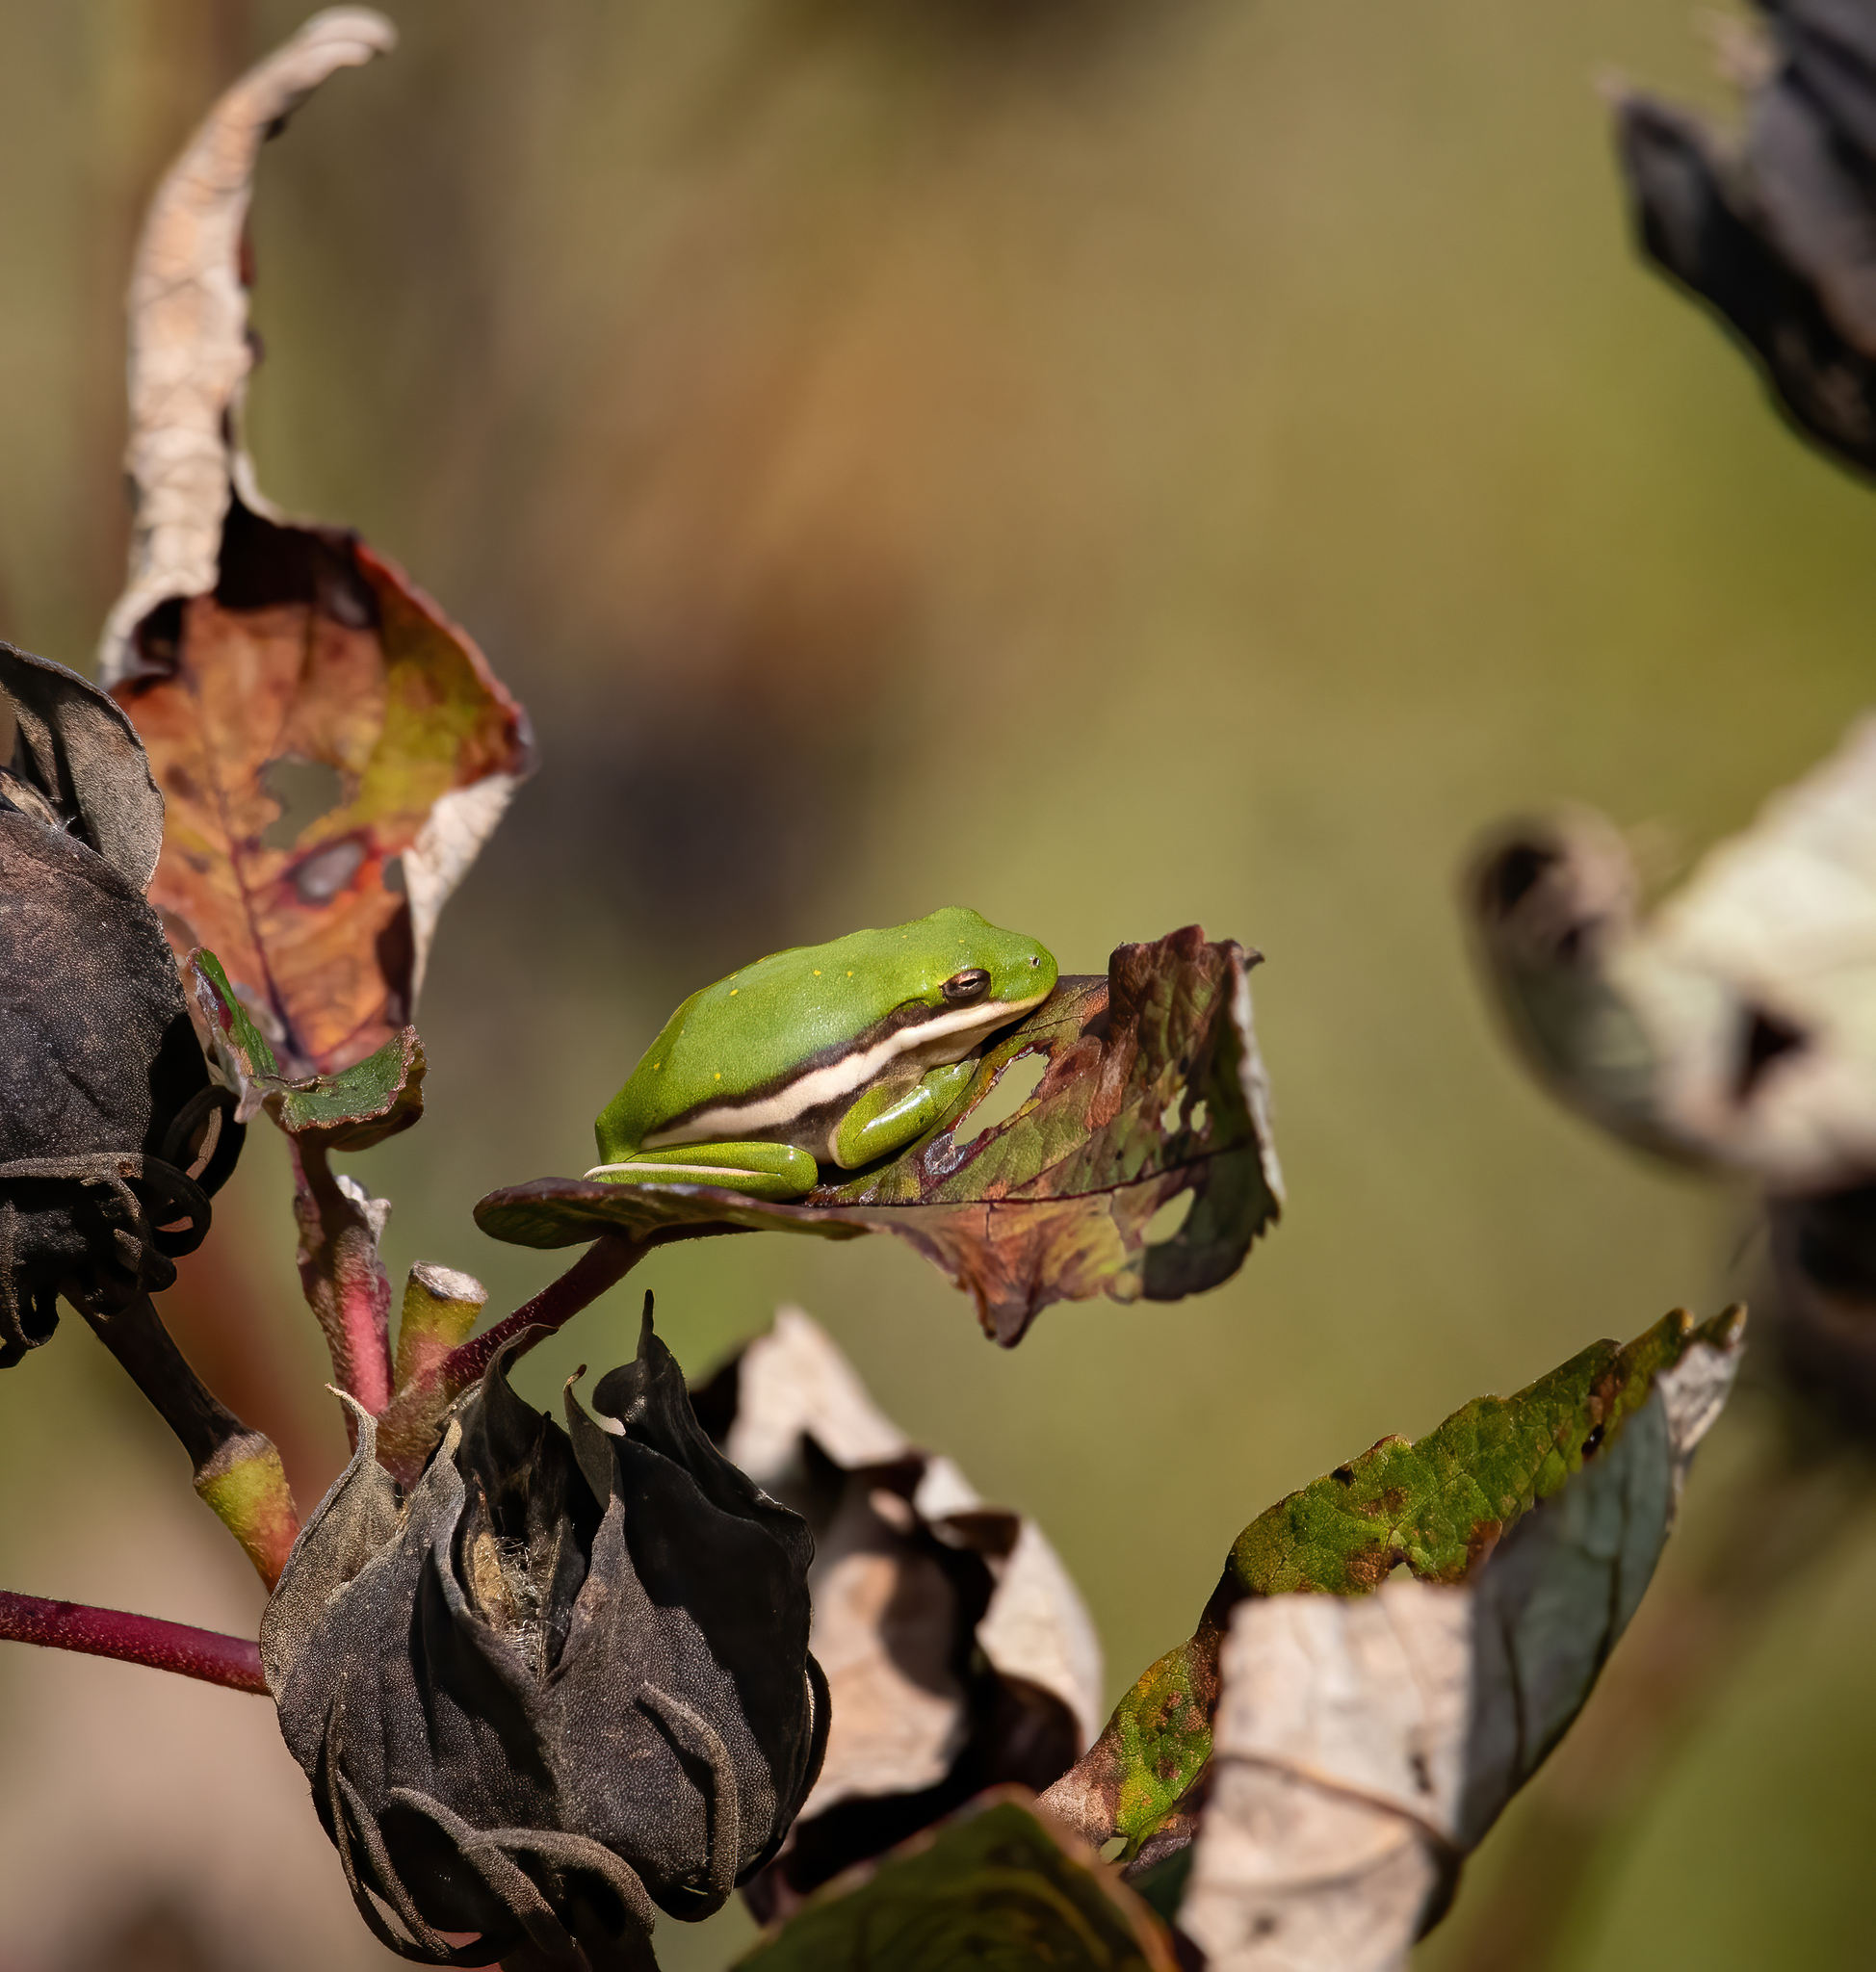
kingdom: Animalia
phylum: Chordata
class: Amphibia
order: Anura
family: Hylidae
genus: Dryophytes
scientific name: Dryophytes cinereus
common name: Green treefrog
